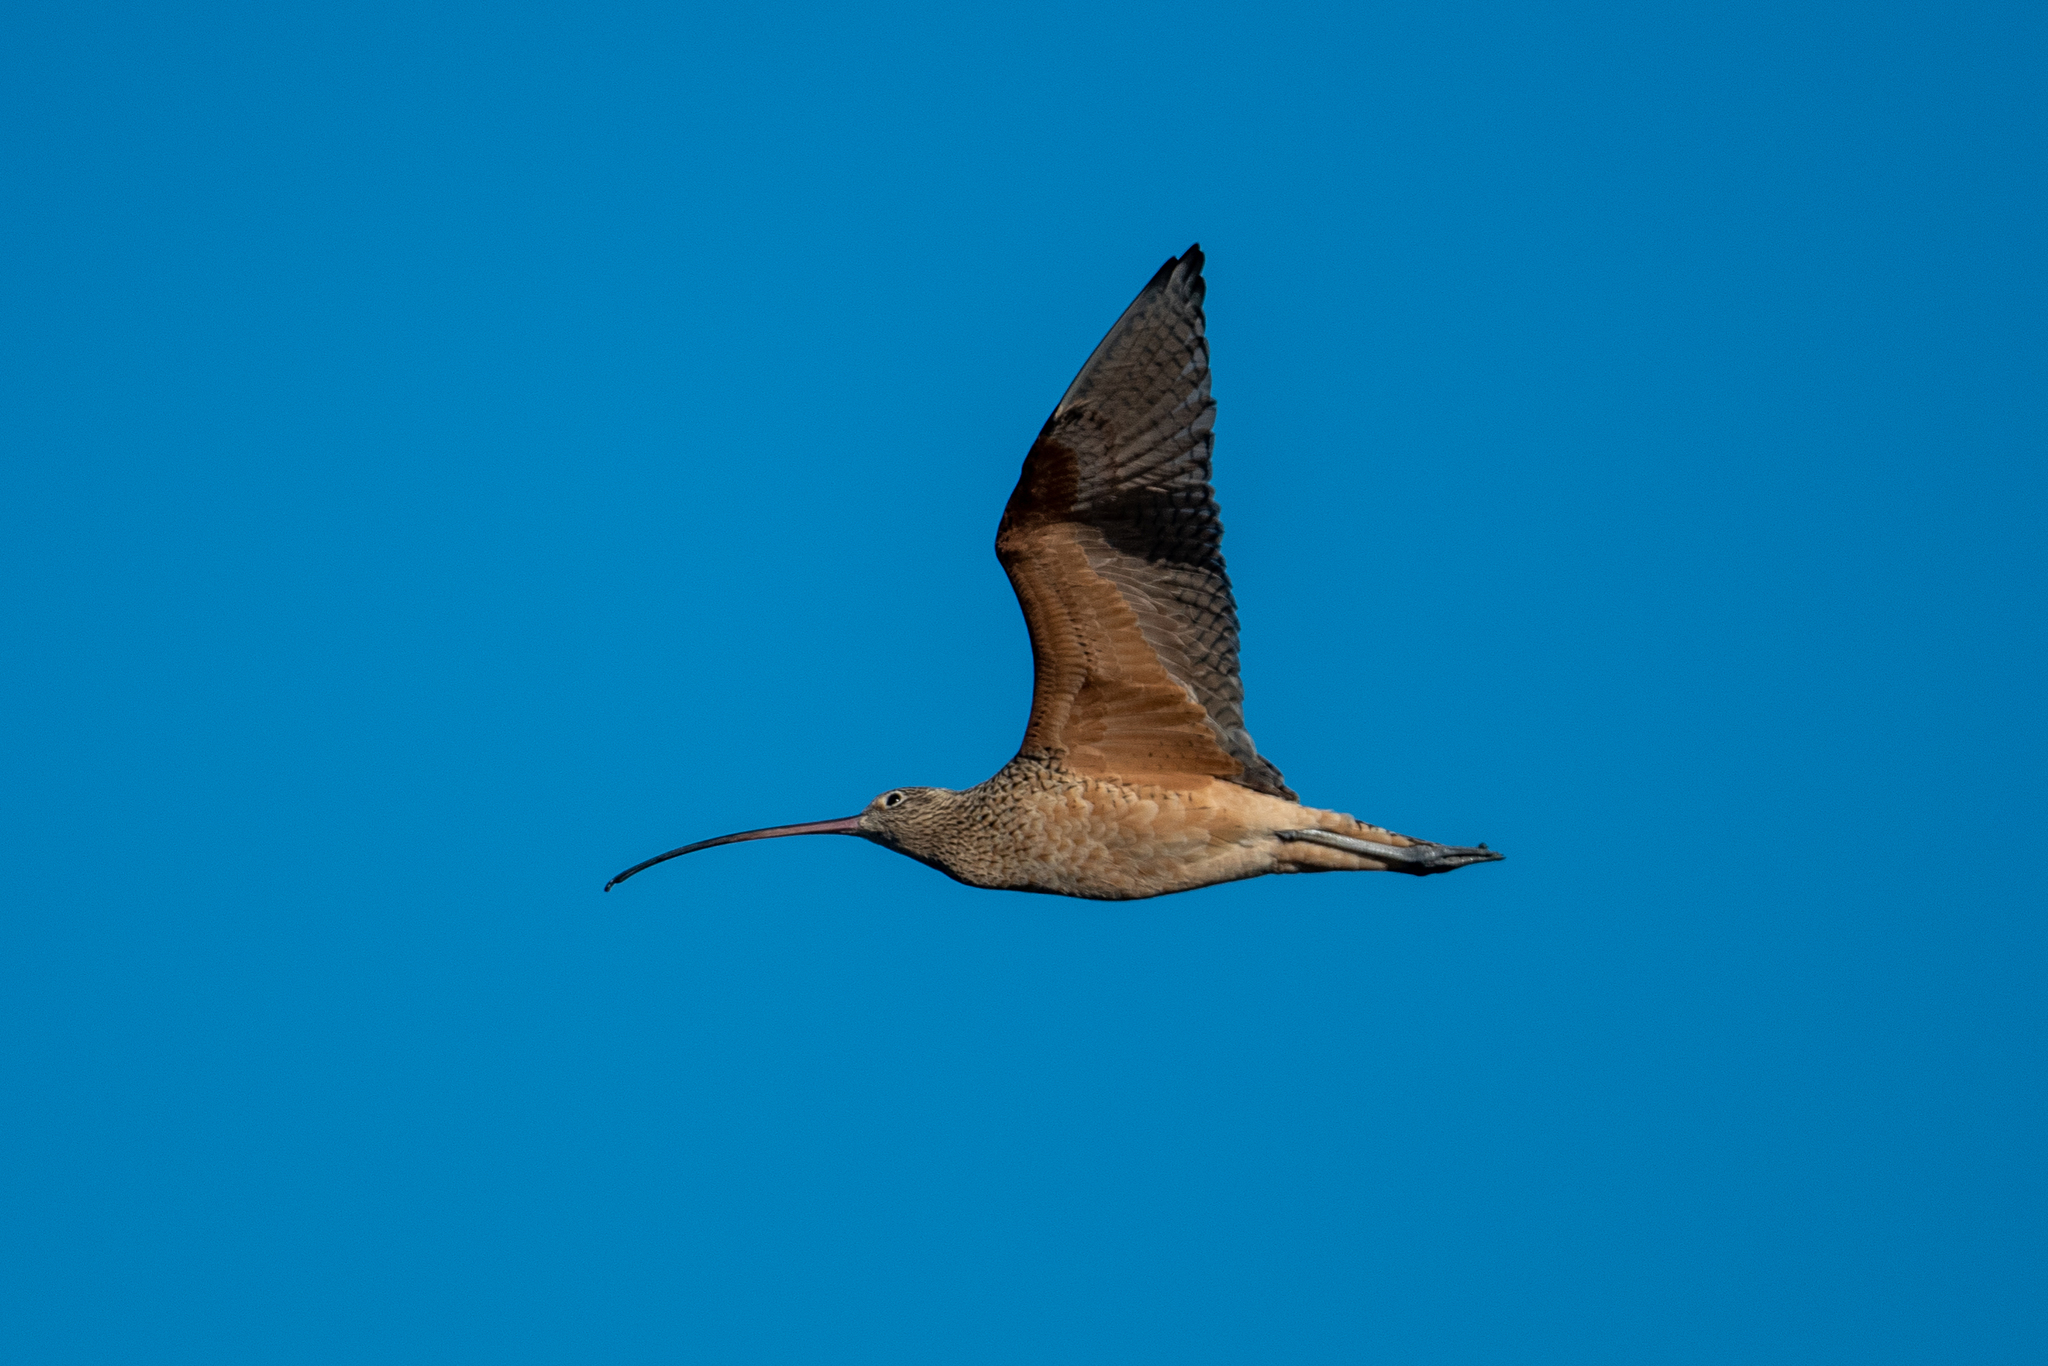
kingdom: Animalia
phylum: Chordata
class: Aves
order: Charadriiformes
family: Scolopacidae
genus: Numenius
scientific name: Numenius americanus
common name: Long-billed curlew
